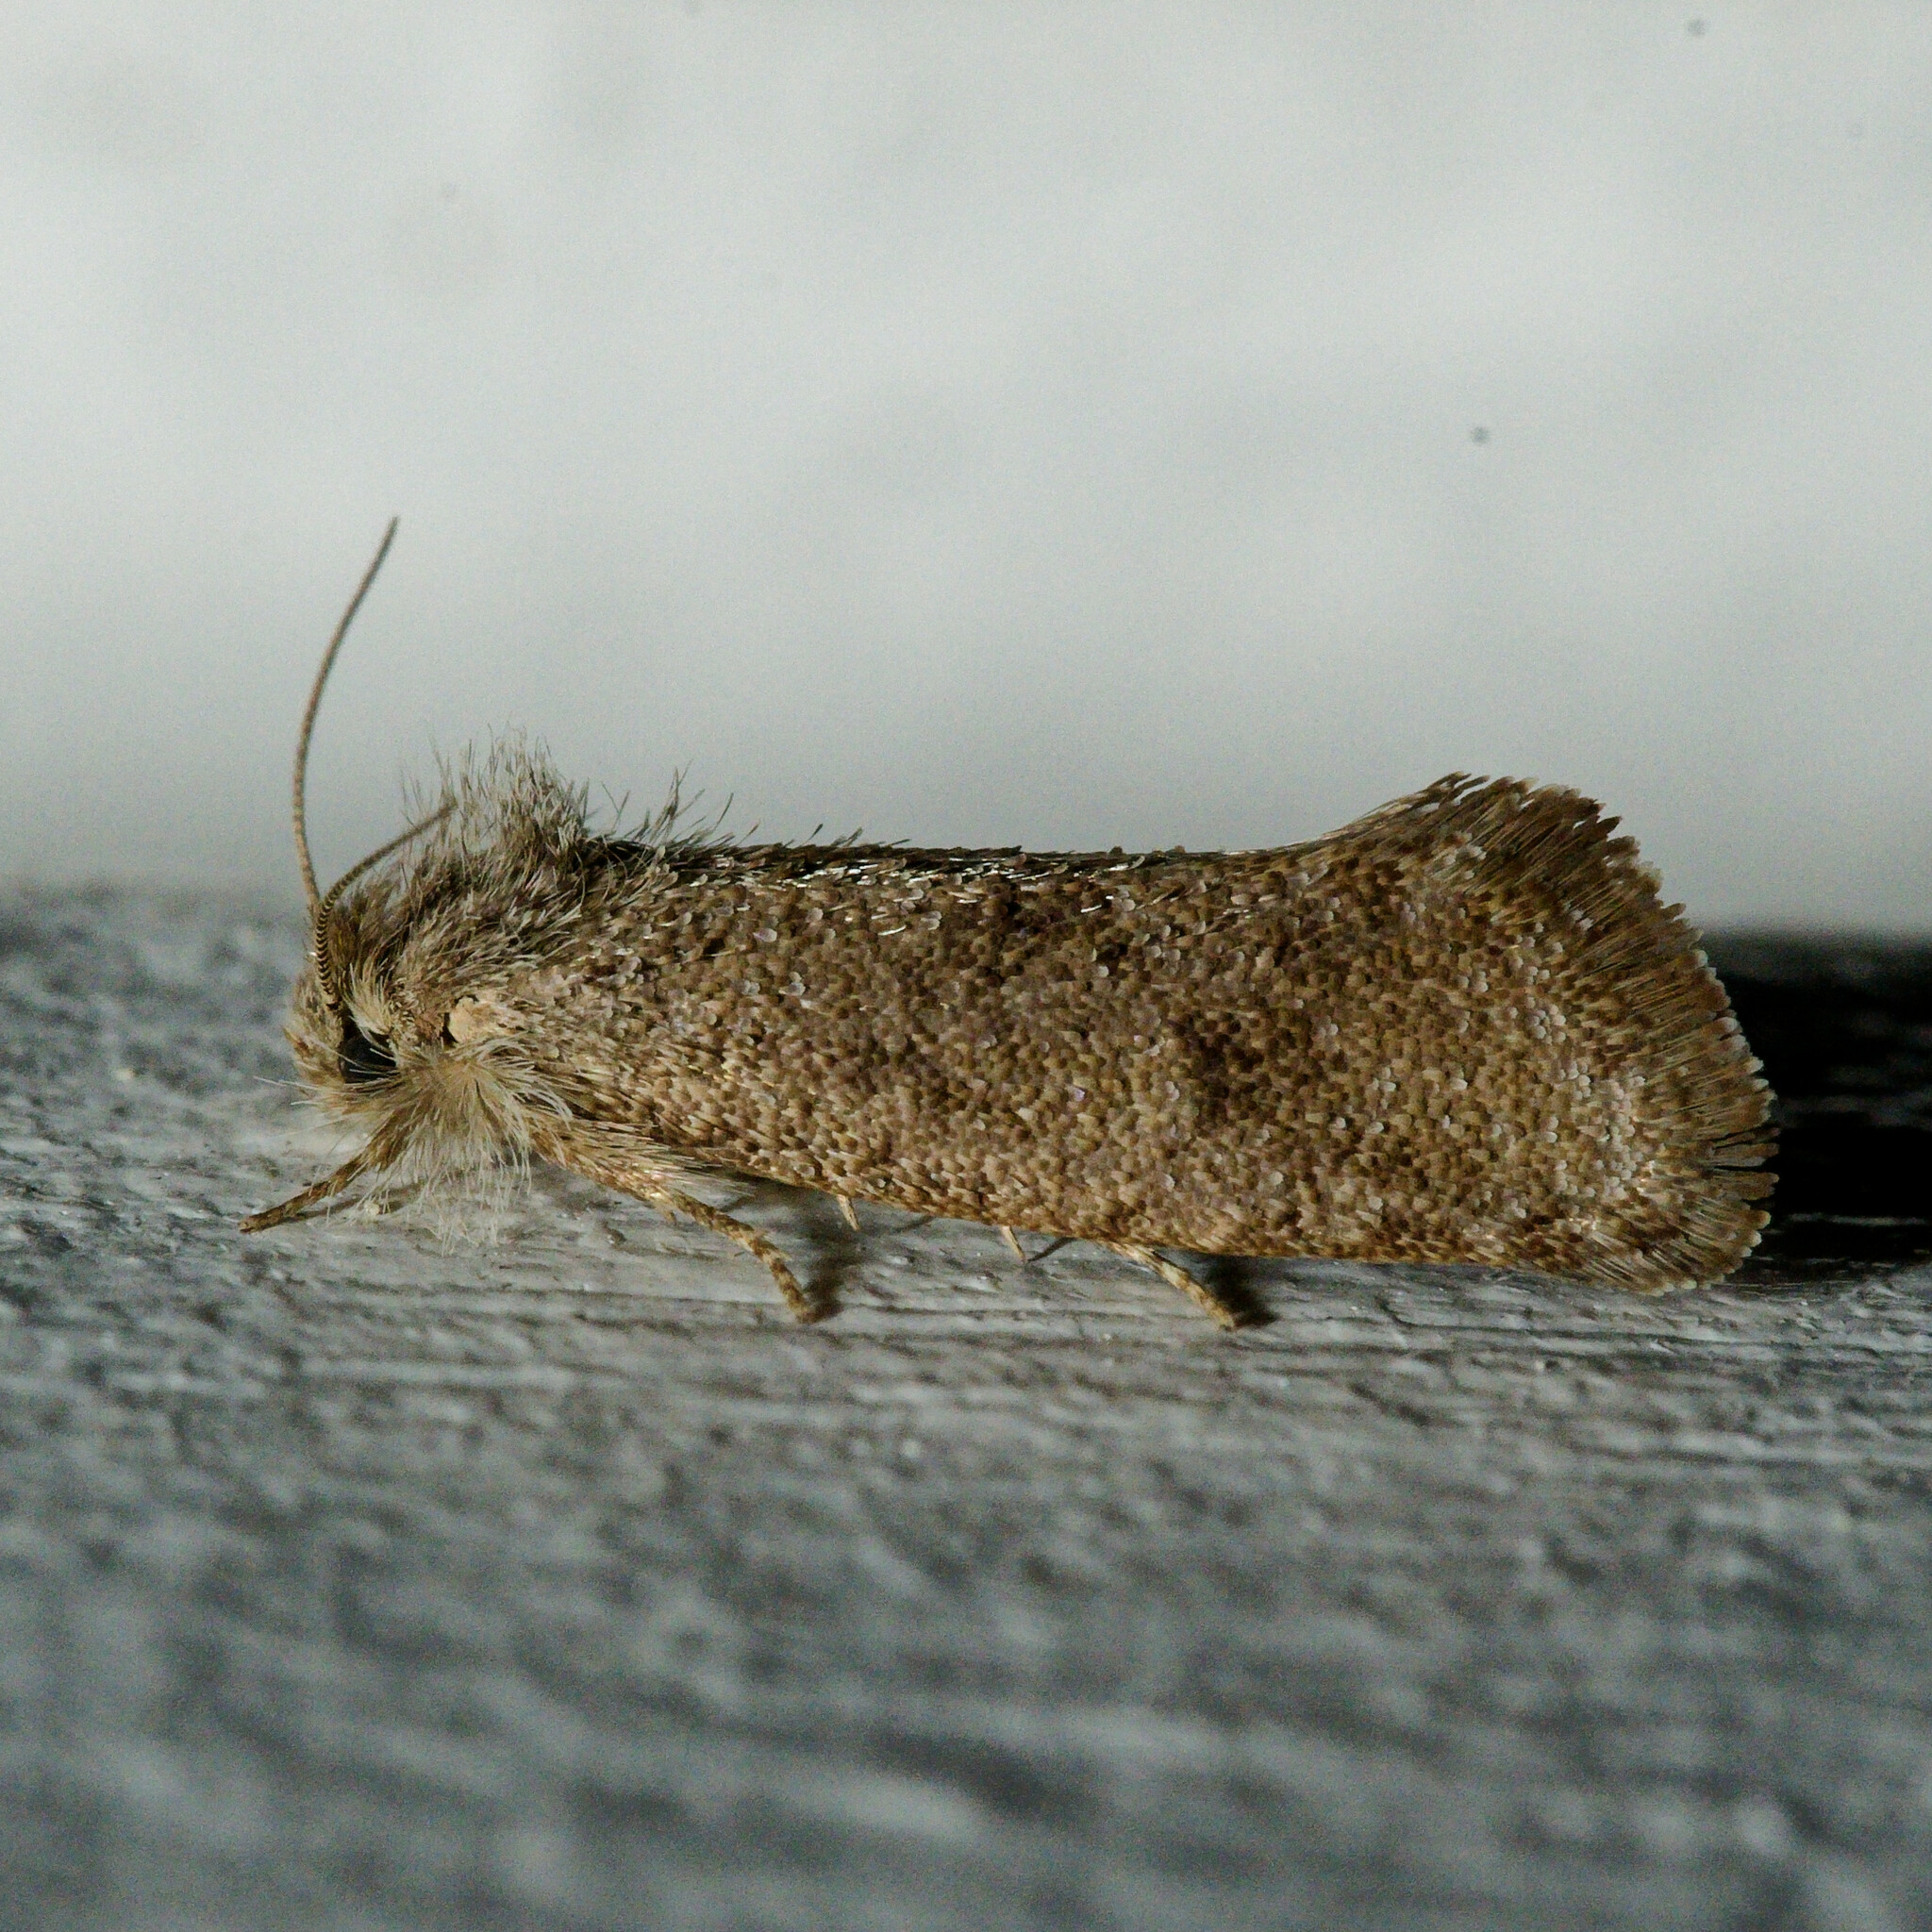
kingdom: Animalia
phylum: Arthropoda
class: Insecta
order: Lepidoptera
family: Tineidae
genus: Acrolophus
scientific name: Acrolophus heppneri
